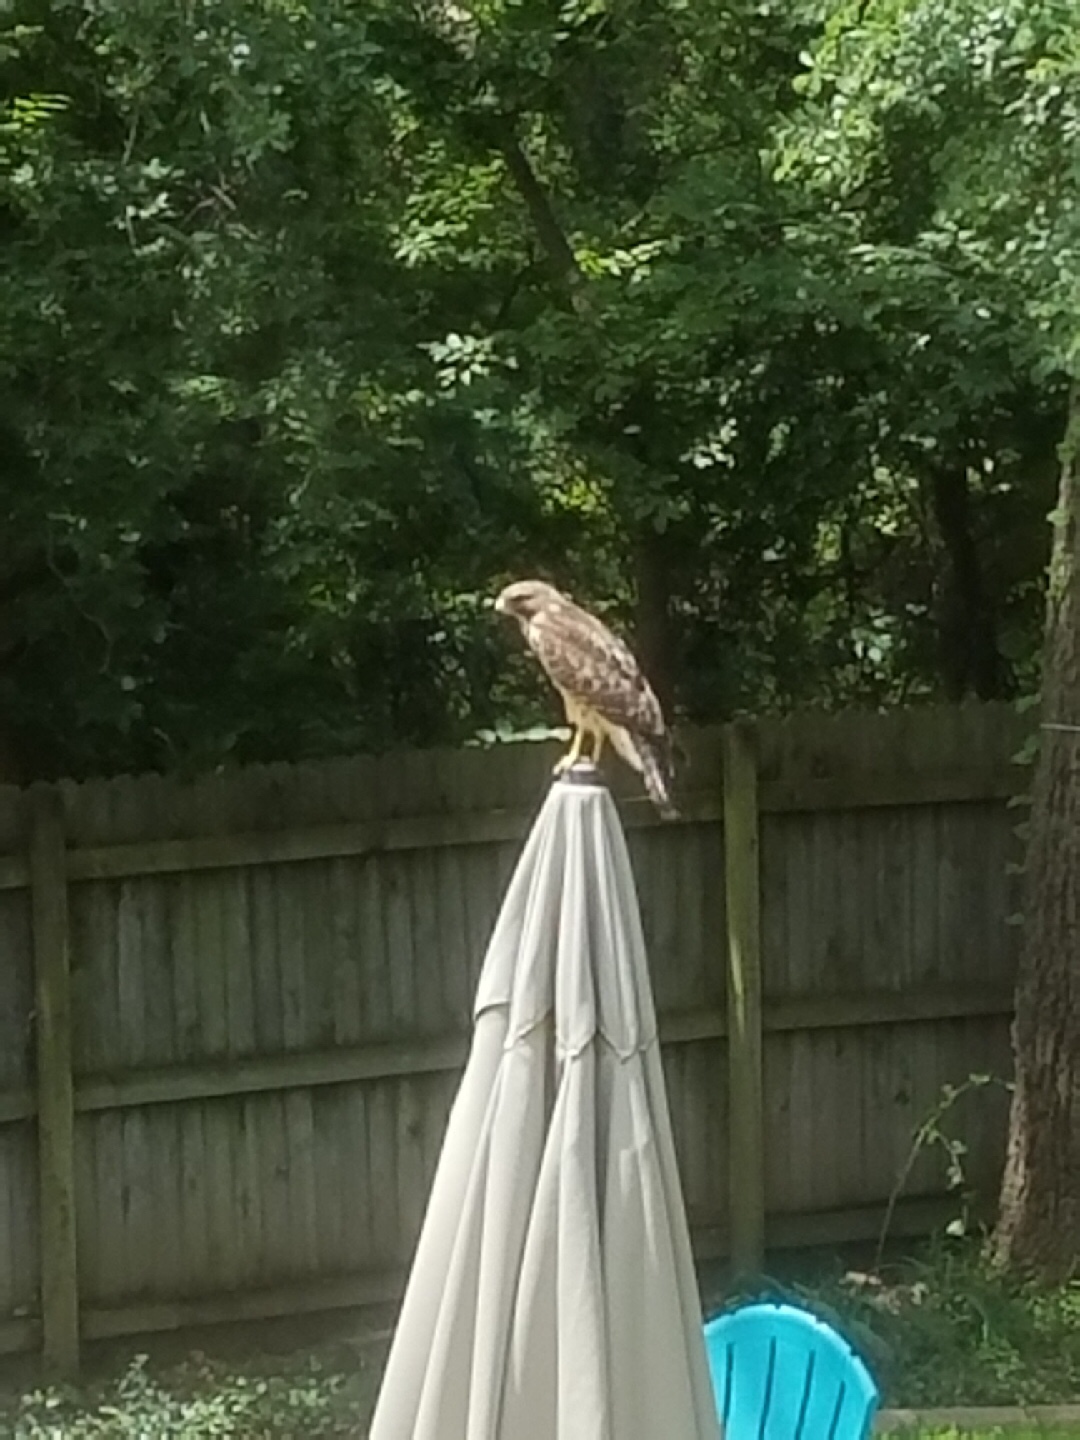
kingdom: Animalia
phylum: Chordata
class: Aves
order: Accipitriformes
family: Accipitridae
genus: Buteo
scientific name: Buteo lineatus
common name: Red-shouldered hawk
